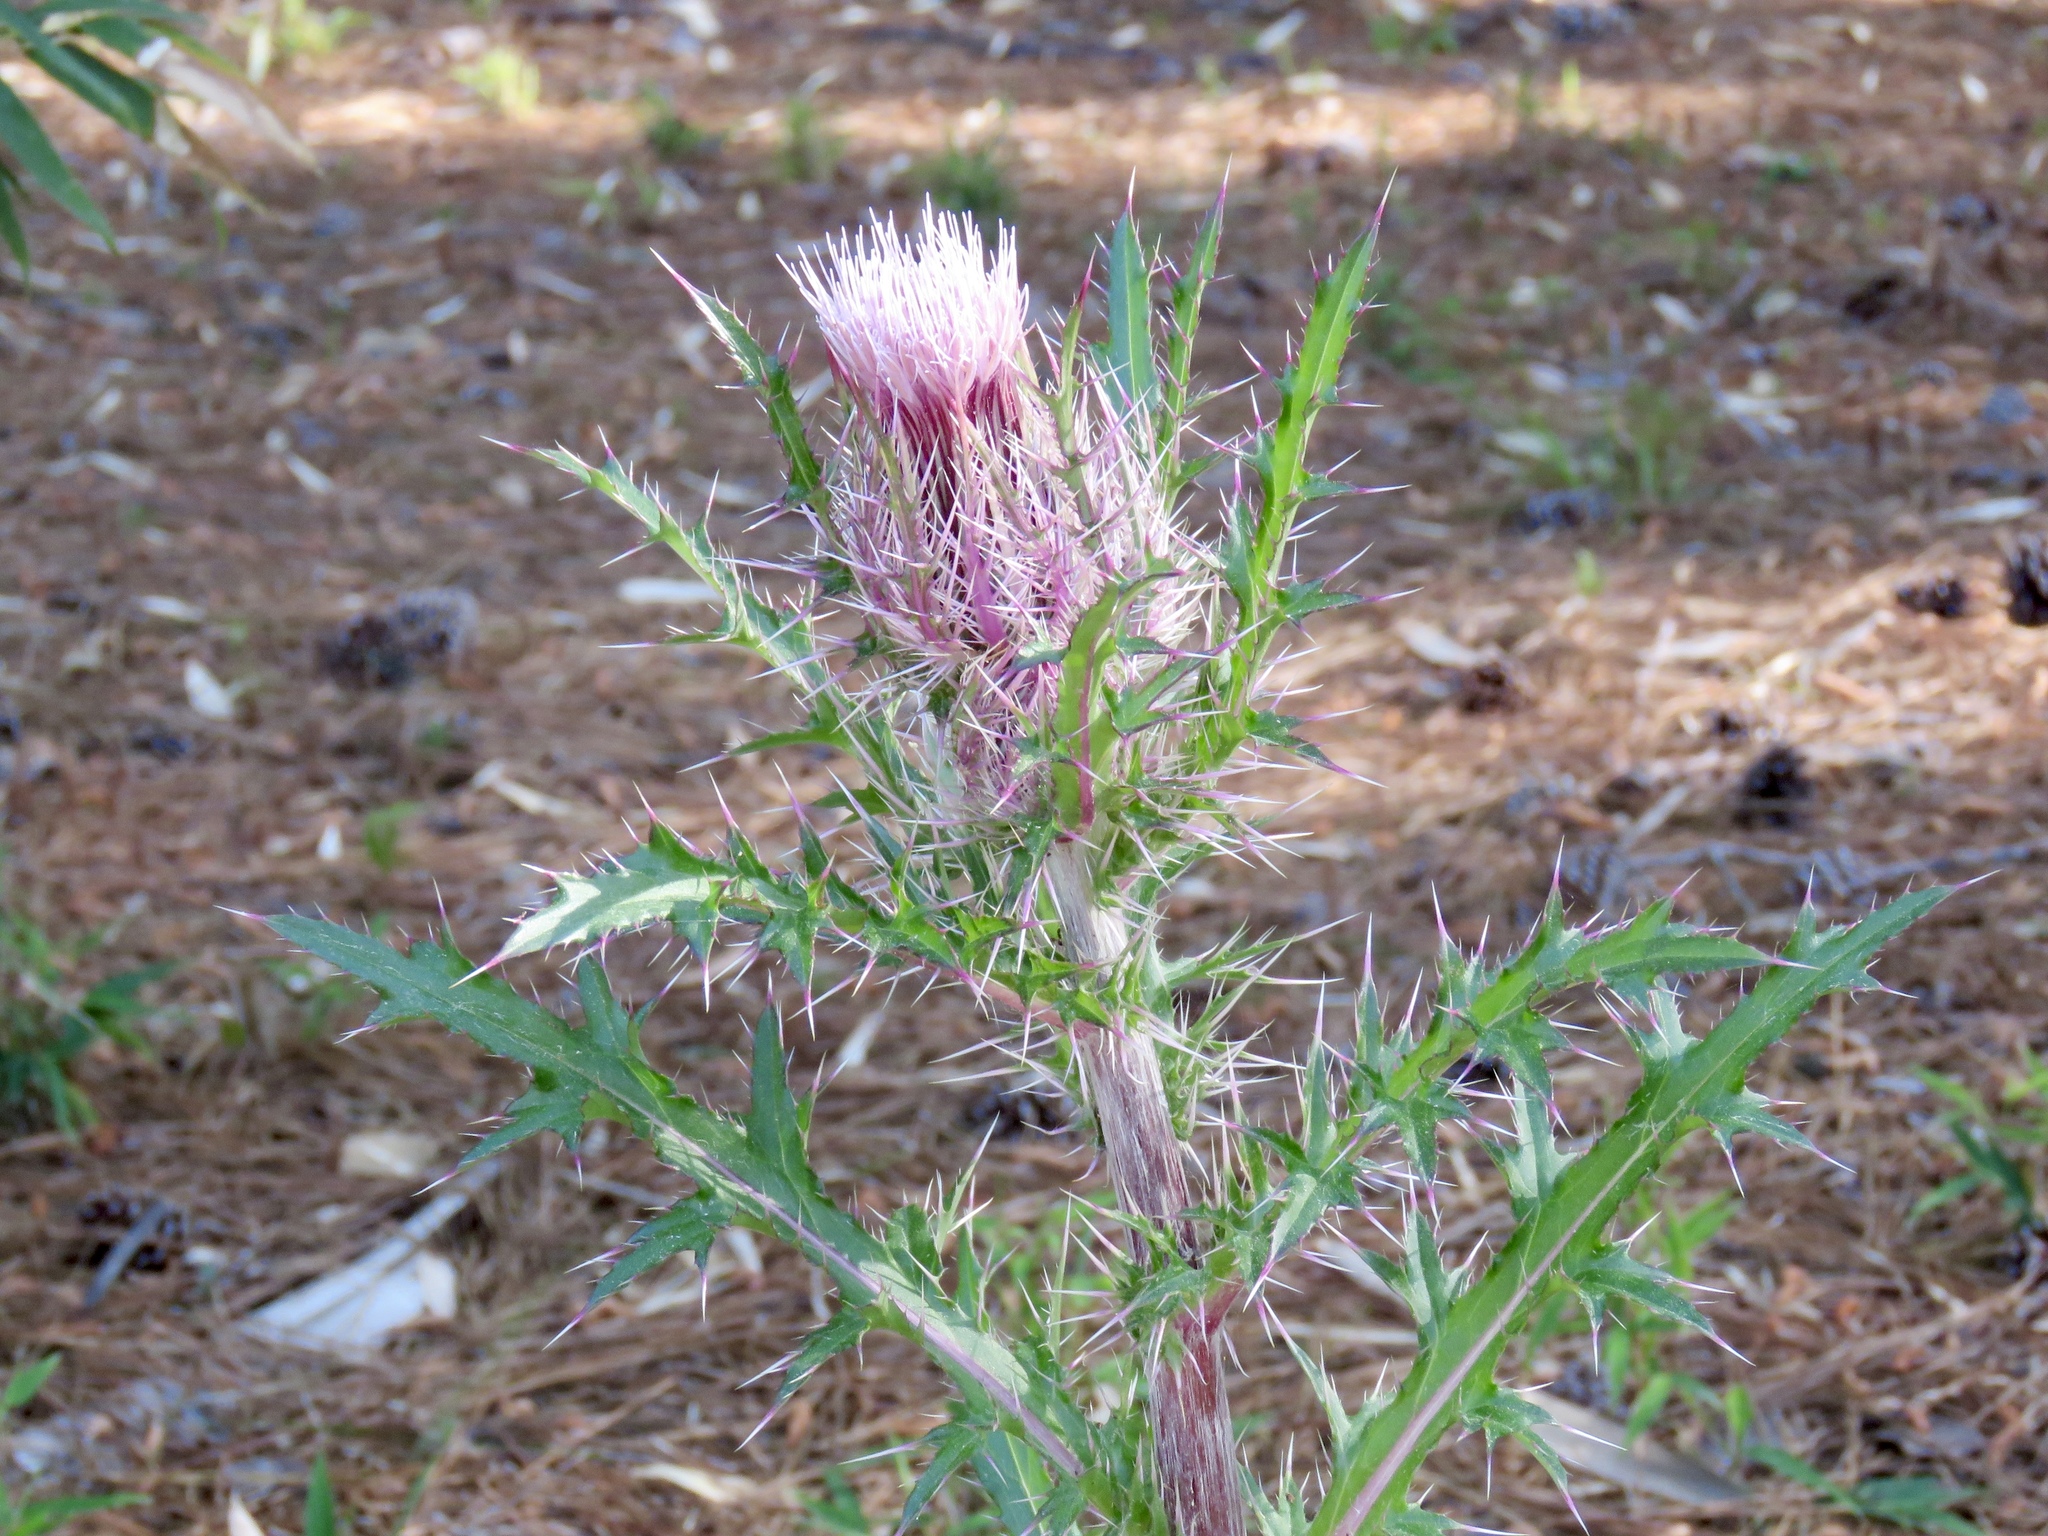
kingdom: Plantae
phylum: Tracheophyta
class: Magnoliopsida
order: Asterales
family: Asteraceae
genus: Cirsium
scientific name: Cirsium horridulum
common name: Bristly thistle
